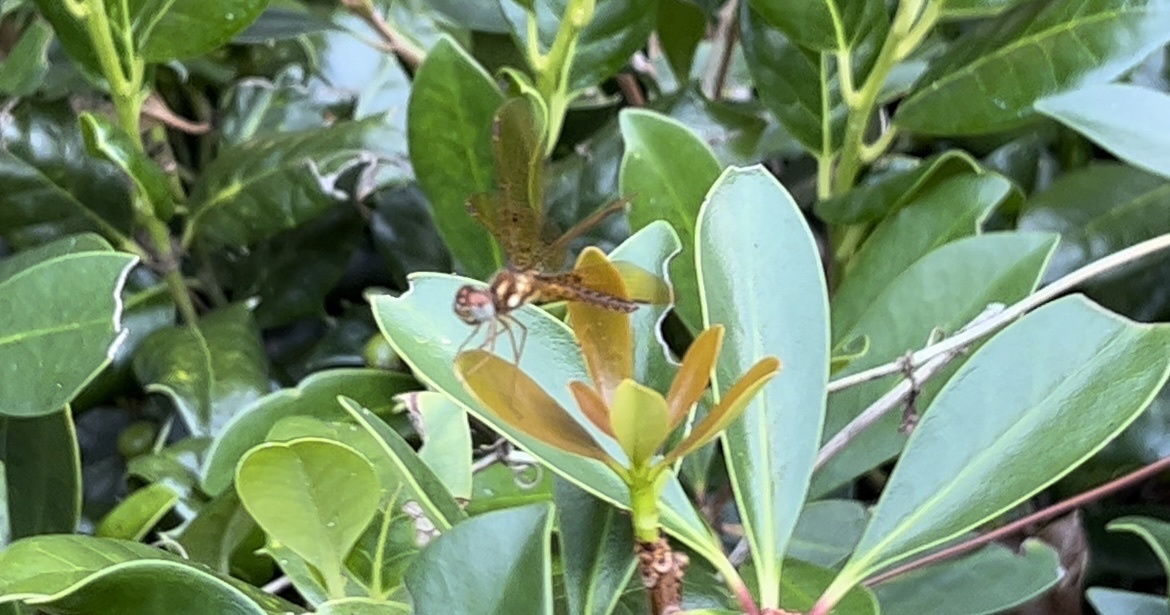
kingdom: Animalia
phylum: Arthropoda
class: Insecta
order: Odonata
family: Libellulidae
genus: Perithemis
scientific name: Perithemis tenera
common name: Eastern amberwing
